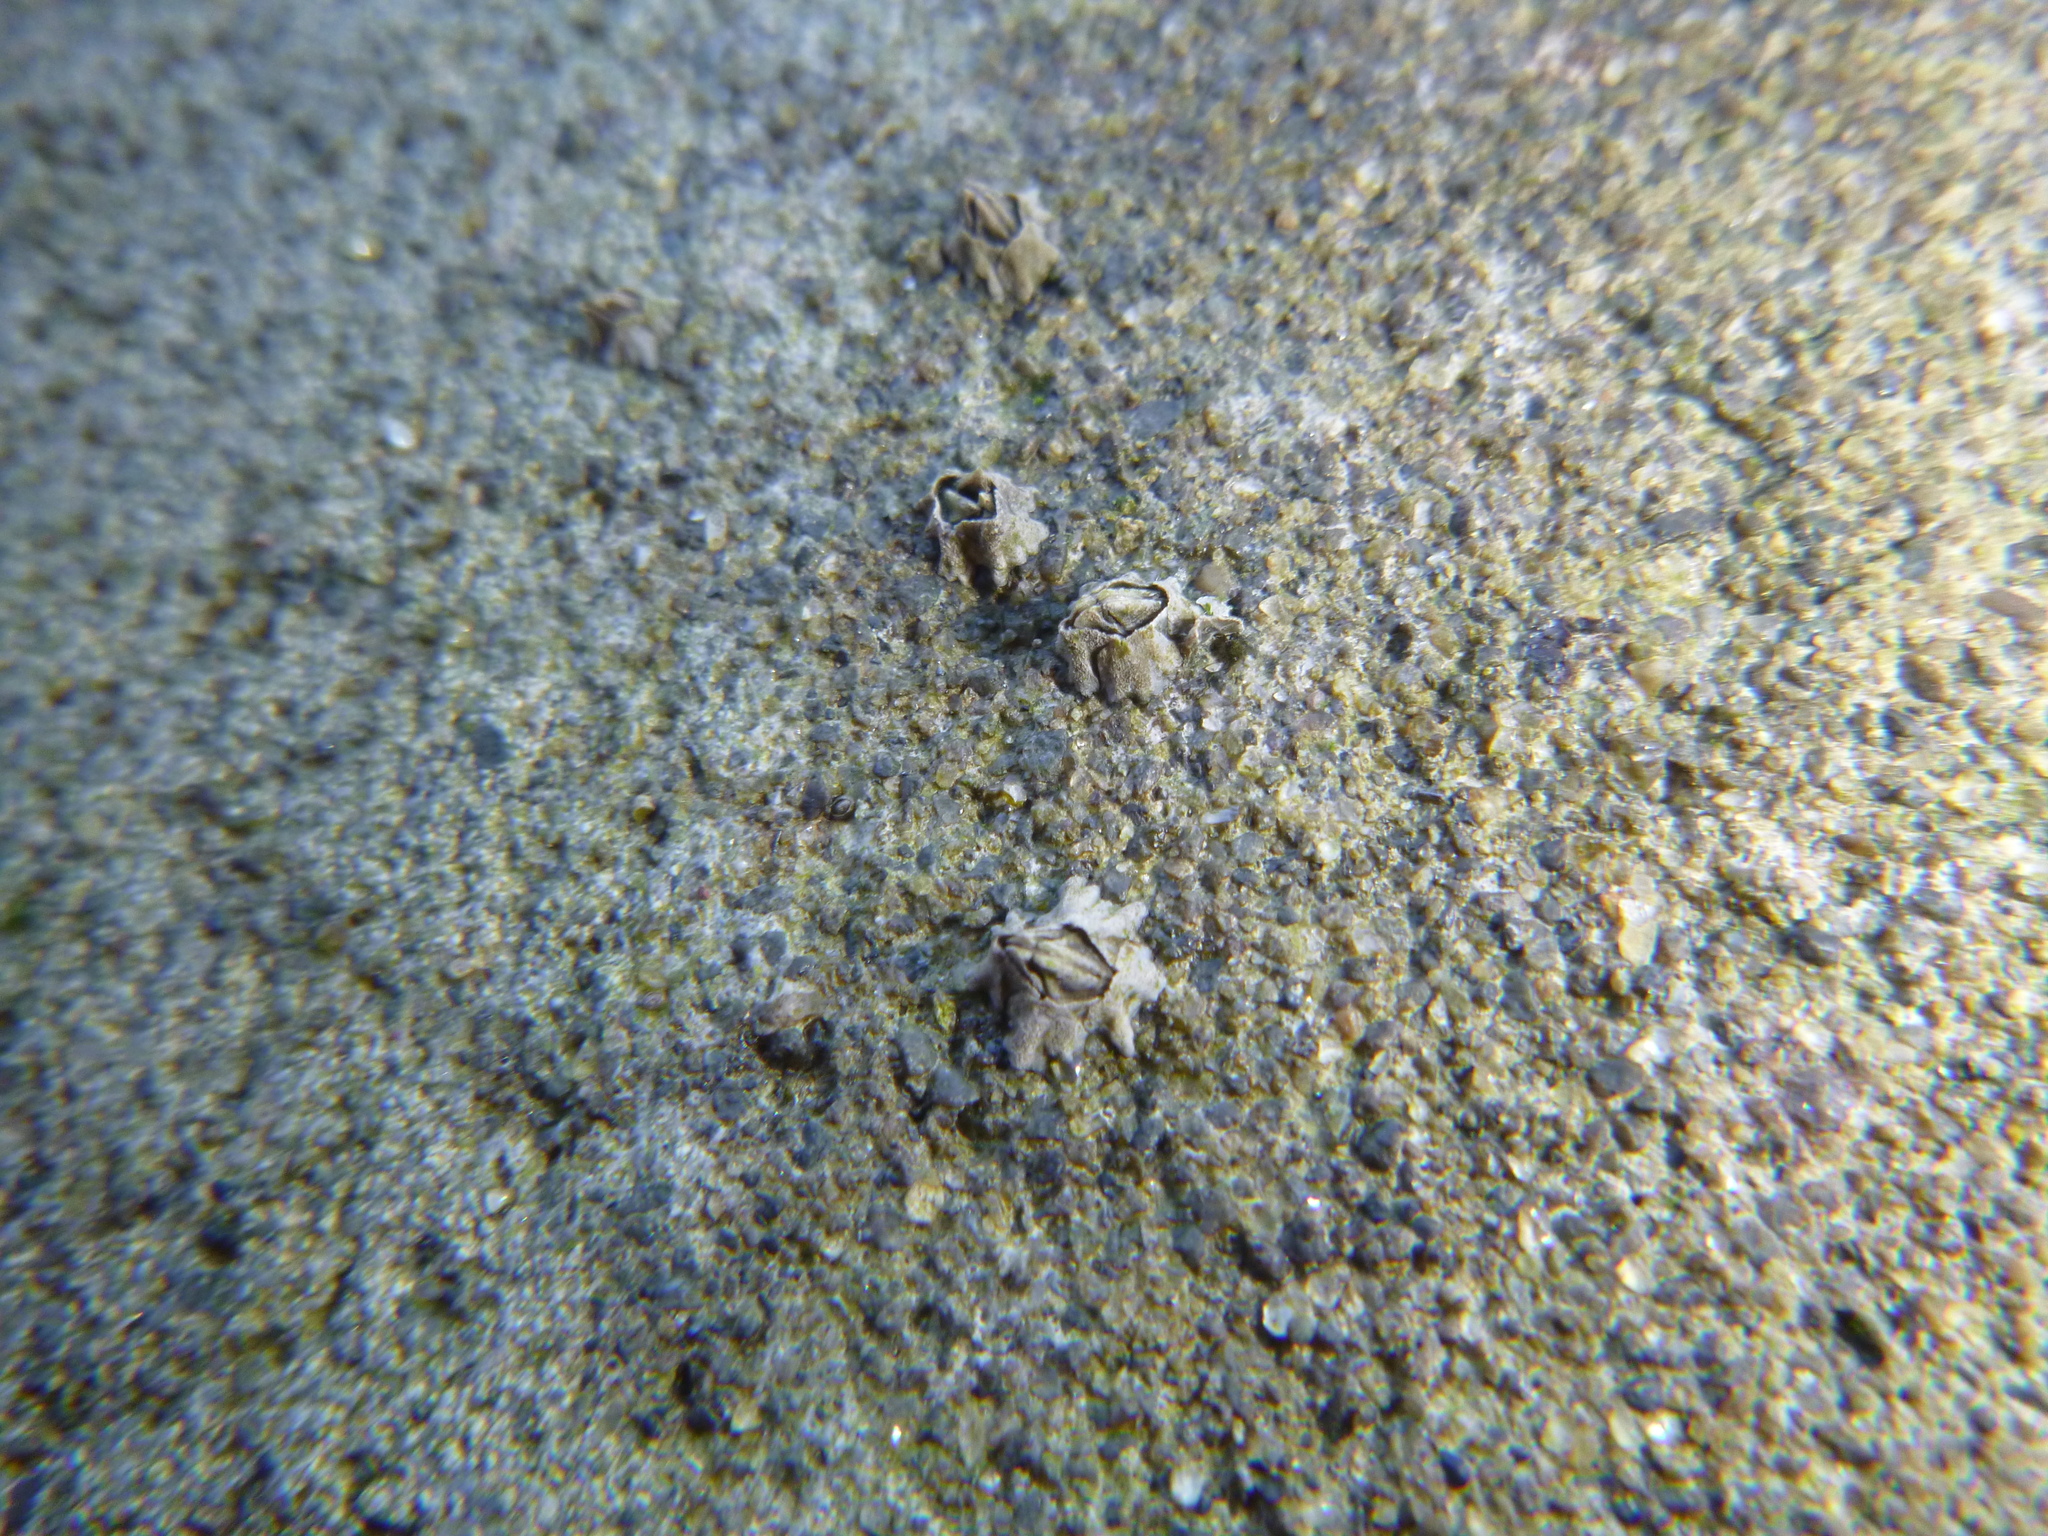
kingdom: Animalia
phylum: Arthropoda
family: Elminiidae
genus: Austrominius
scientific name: Austrominius modestus
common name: Australasian barnacle
